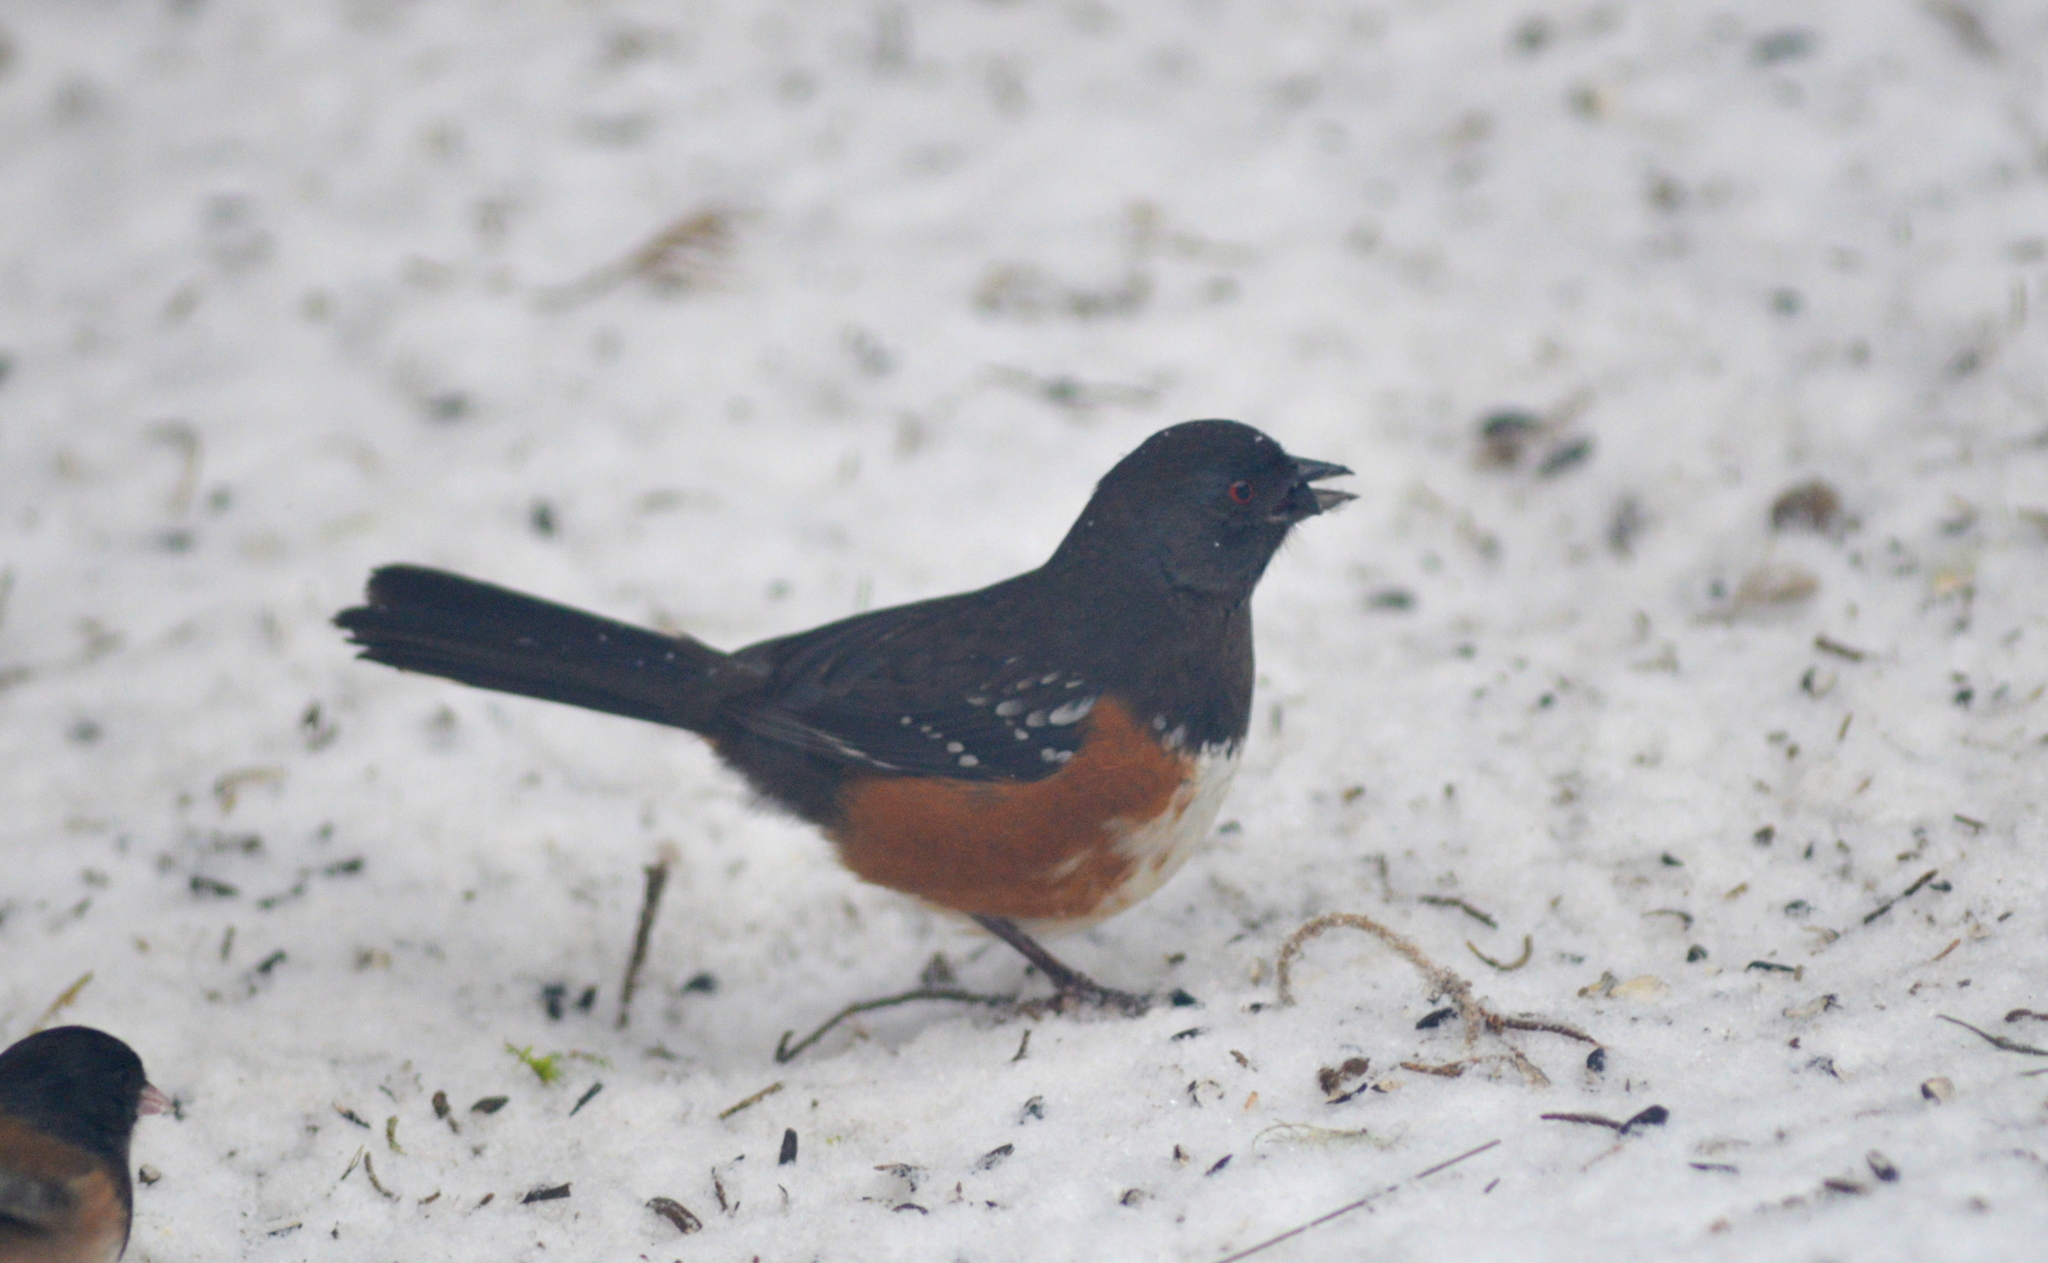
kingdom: Animalia
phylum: Chordata
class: Aves
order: Passeriformes
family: Passerellidae
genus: Pipilo
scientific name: Pipilo maculatus
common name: Spotted towhee
